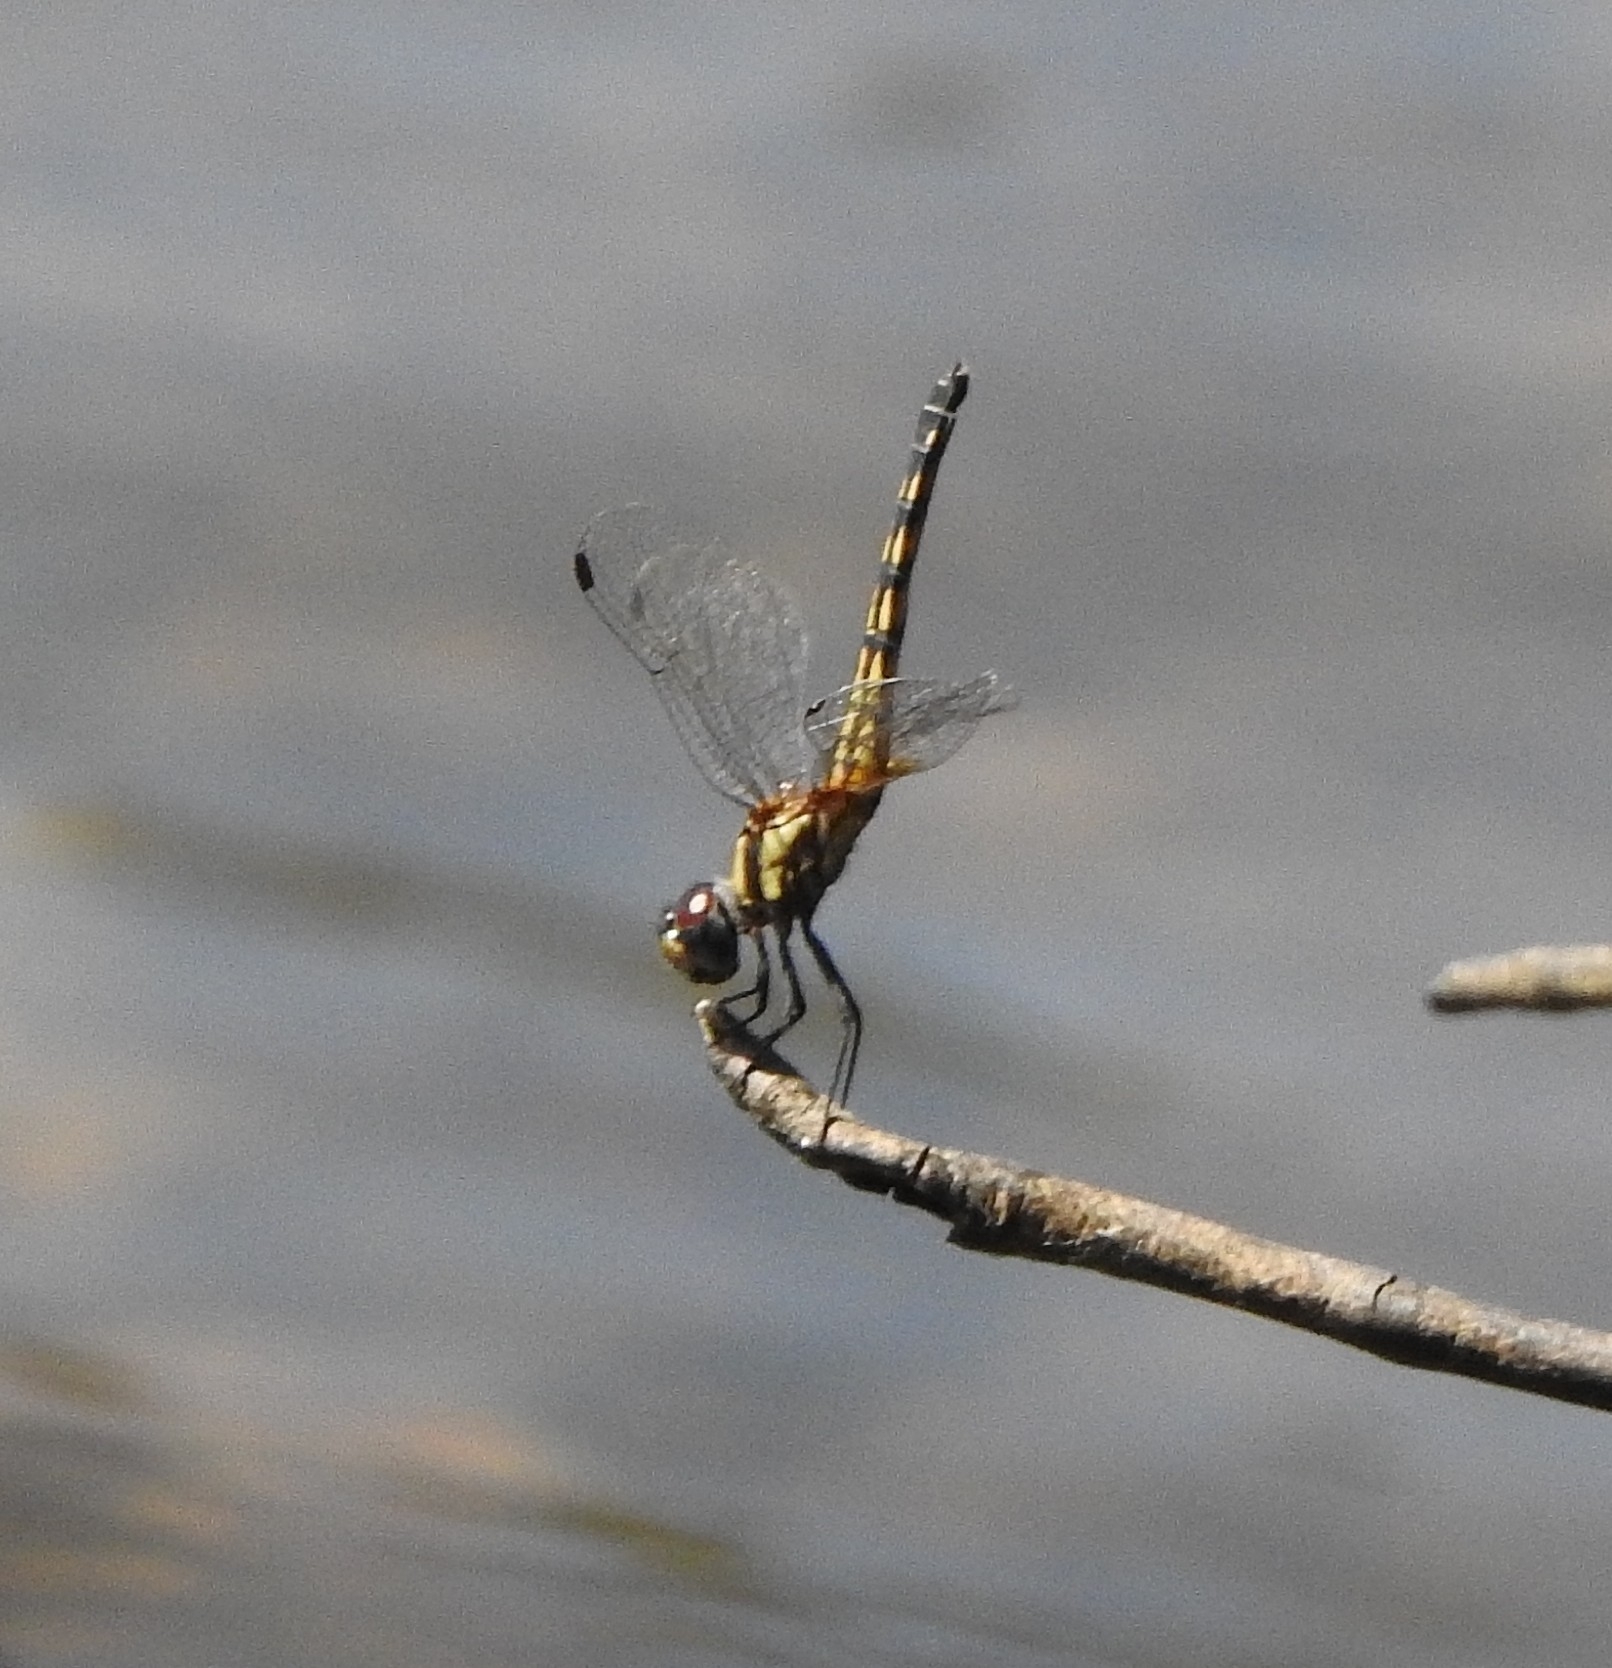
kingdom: Animalia
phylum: Arthropoda
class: Insecta
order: Odonata
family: Libellulidae
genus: Trithemis
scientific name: Trithemis festiva
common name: Indigo dropwing
